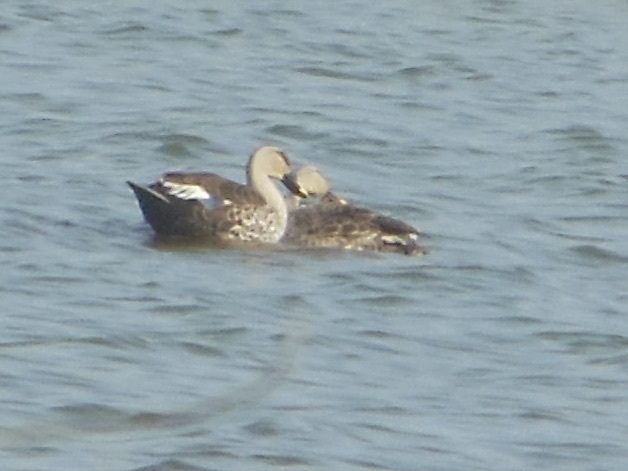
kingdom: Animalia
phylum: Chordata
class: Aves
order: Anseriformes
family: Anatidae
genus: Anas
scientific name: Anas poecilorhyncha
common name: Indian spot-billed duck
